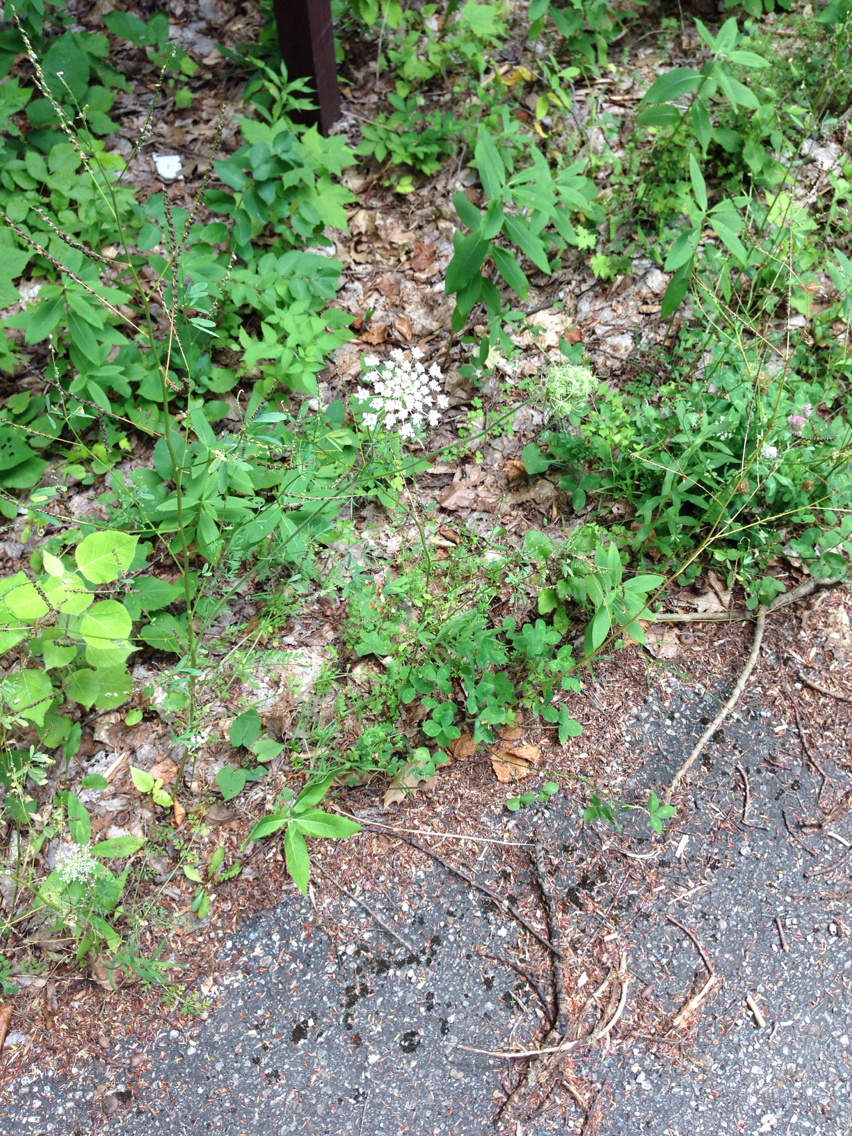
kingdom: Plantae
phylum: Tracheophyta
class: Magnoliopsida
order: Apiales
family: Apiaceae
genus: Daucus
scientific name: Daucus carota
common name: Wild carrot
